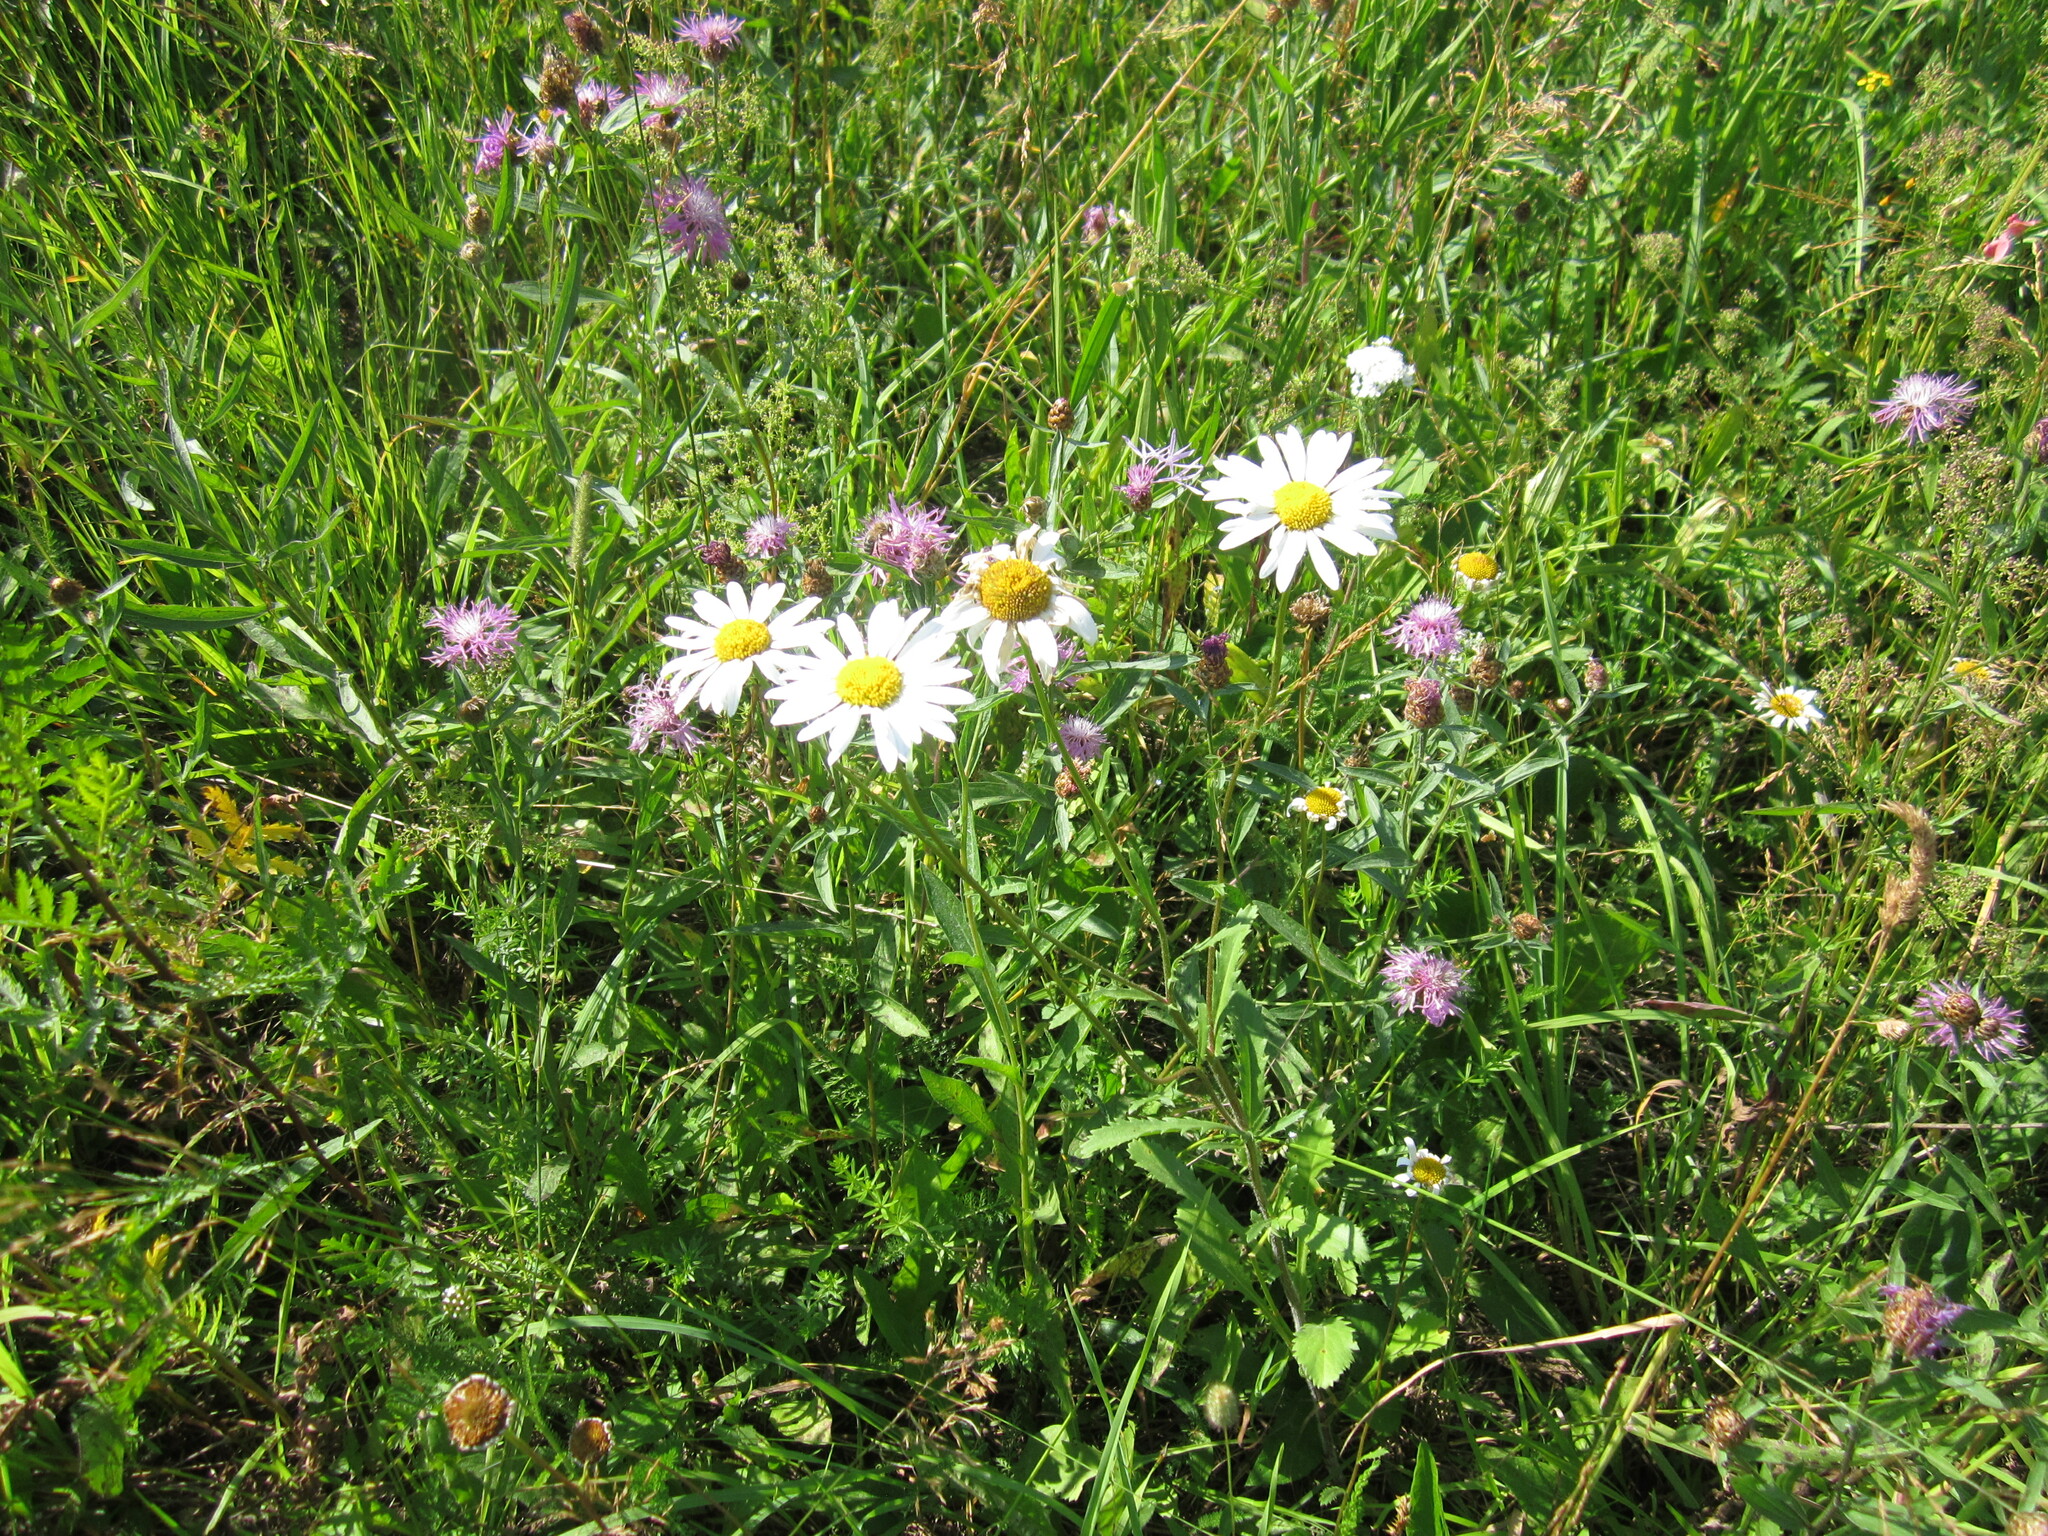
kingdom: Plantae
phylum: Tracheophyta
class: Magnoliopsida
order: Asterales
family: Asteraceae
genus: Leucanthemum
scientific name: Leucanthemum vulgare
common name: Oxeye daisy
